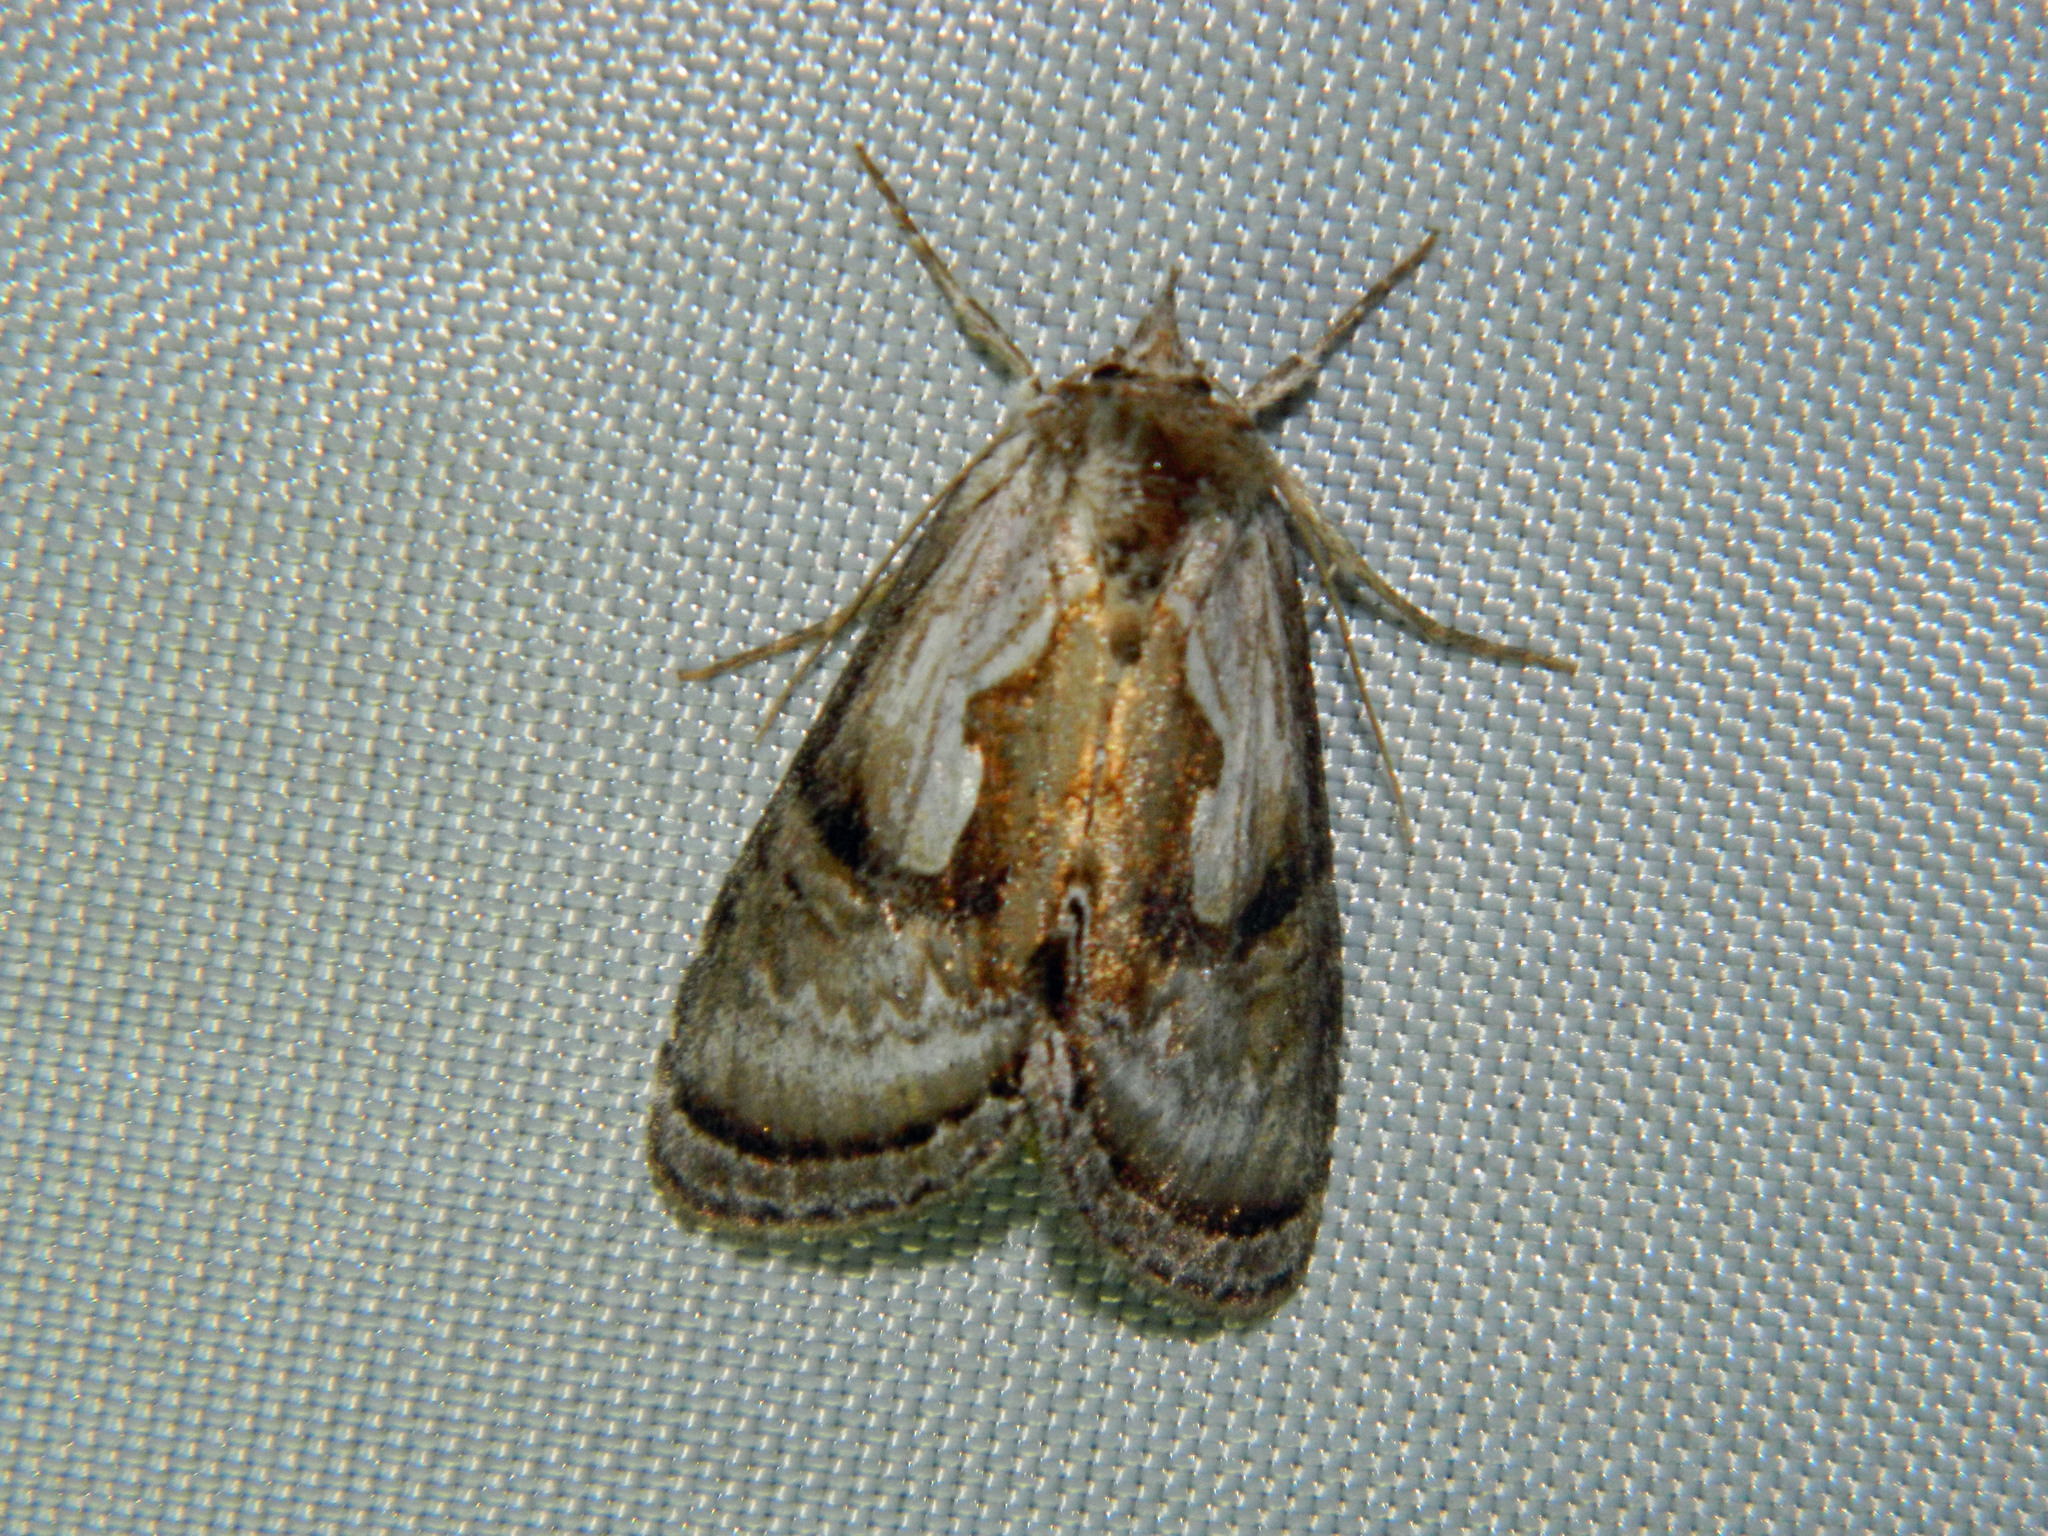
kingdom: Animalia
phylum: Arthropoda
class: Insecta
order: Lepidoptera
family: Noctuidae
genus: Chrysanympha
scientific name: Chrysanympha formosa
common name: Formosa looper moth
